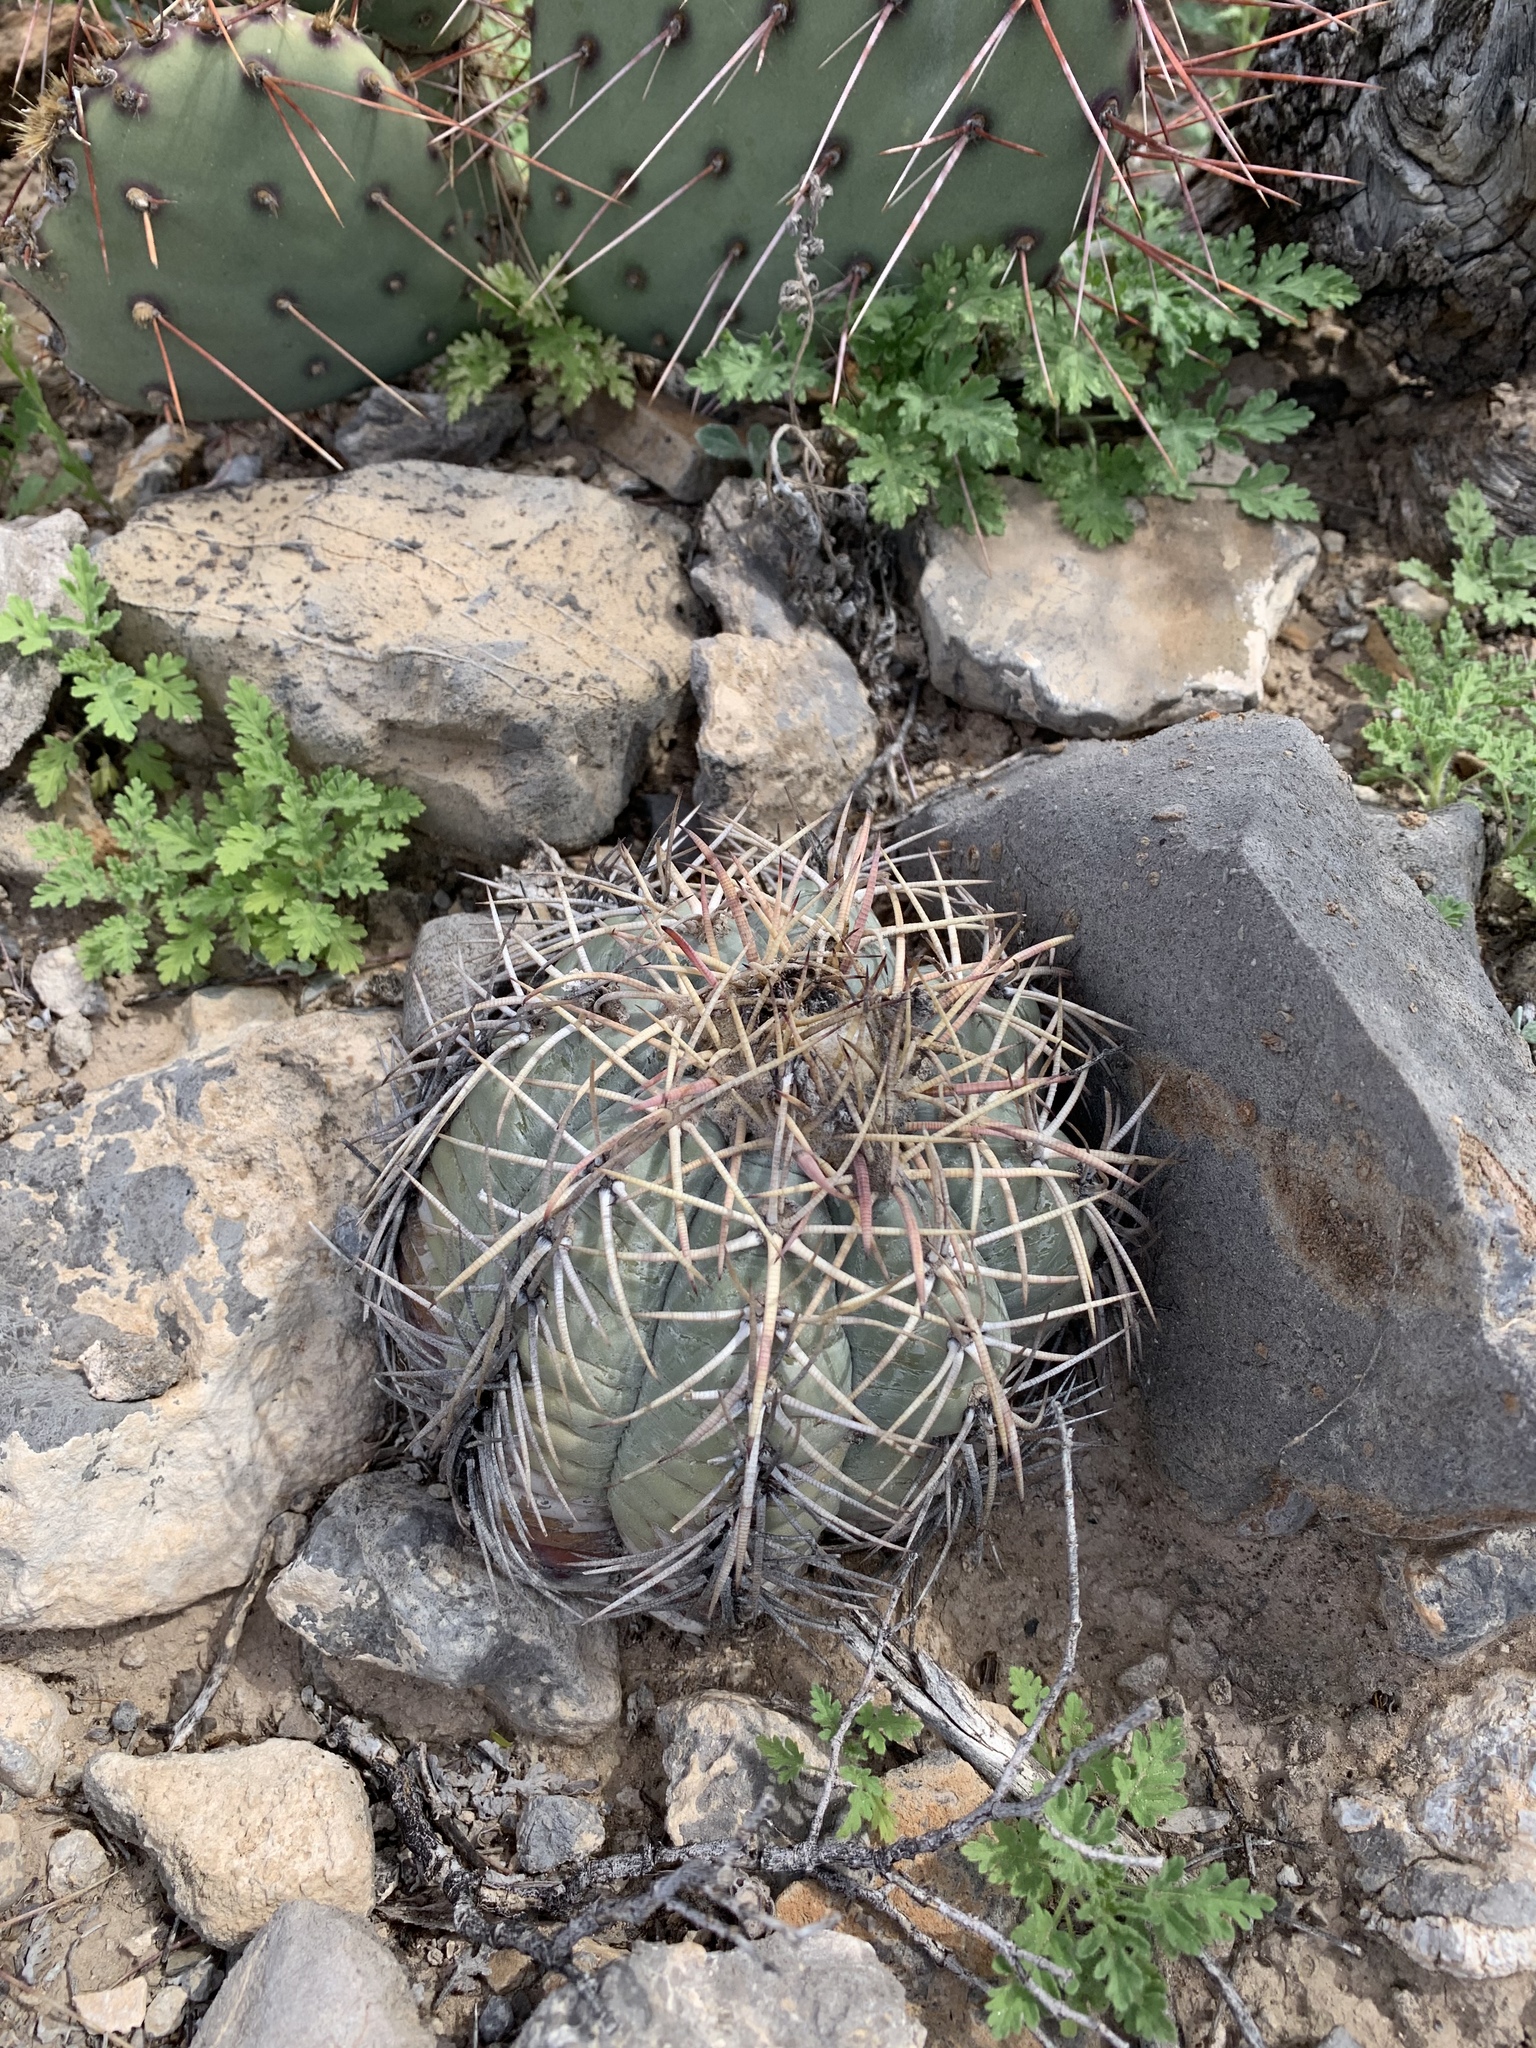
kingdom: Plantae
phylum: Tracheophyta
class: Magnoliopsida
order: Caryophyllales
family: Cactaceae
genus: Echinocactus
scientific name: Echinocactus horizonthalonius
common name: Devilshead
